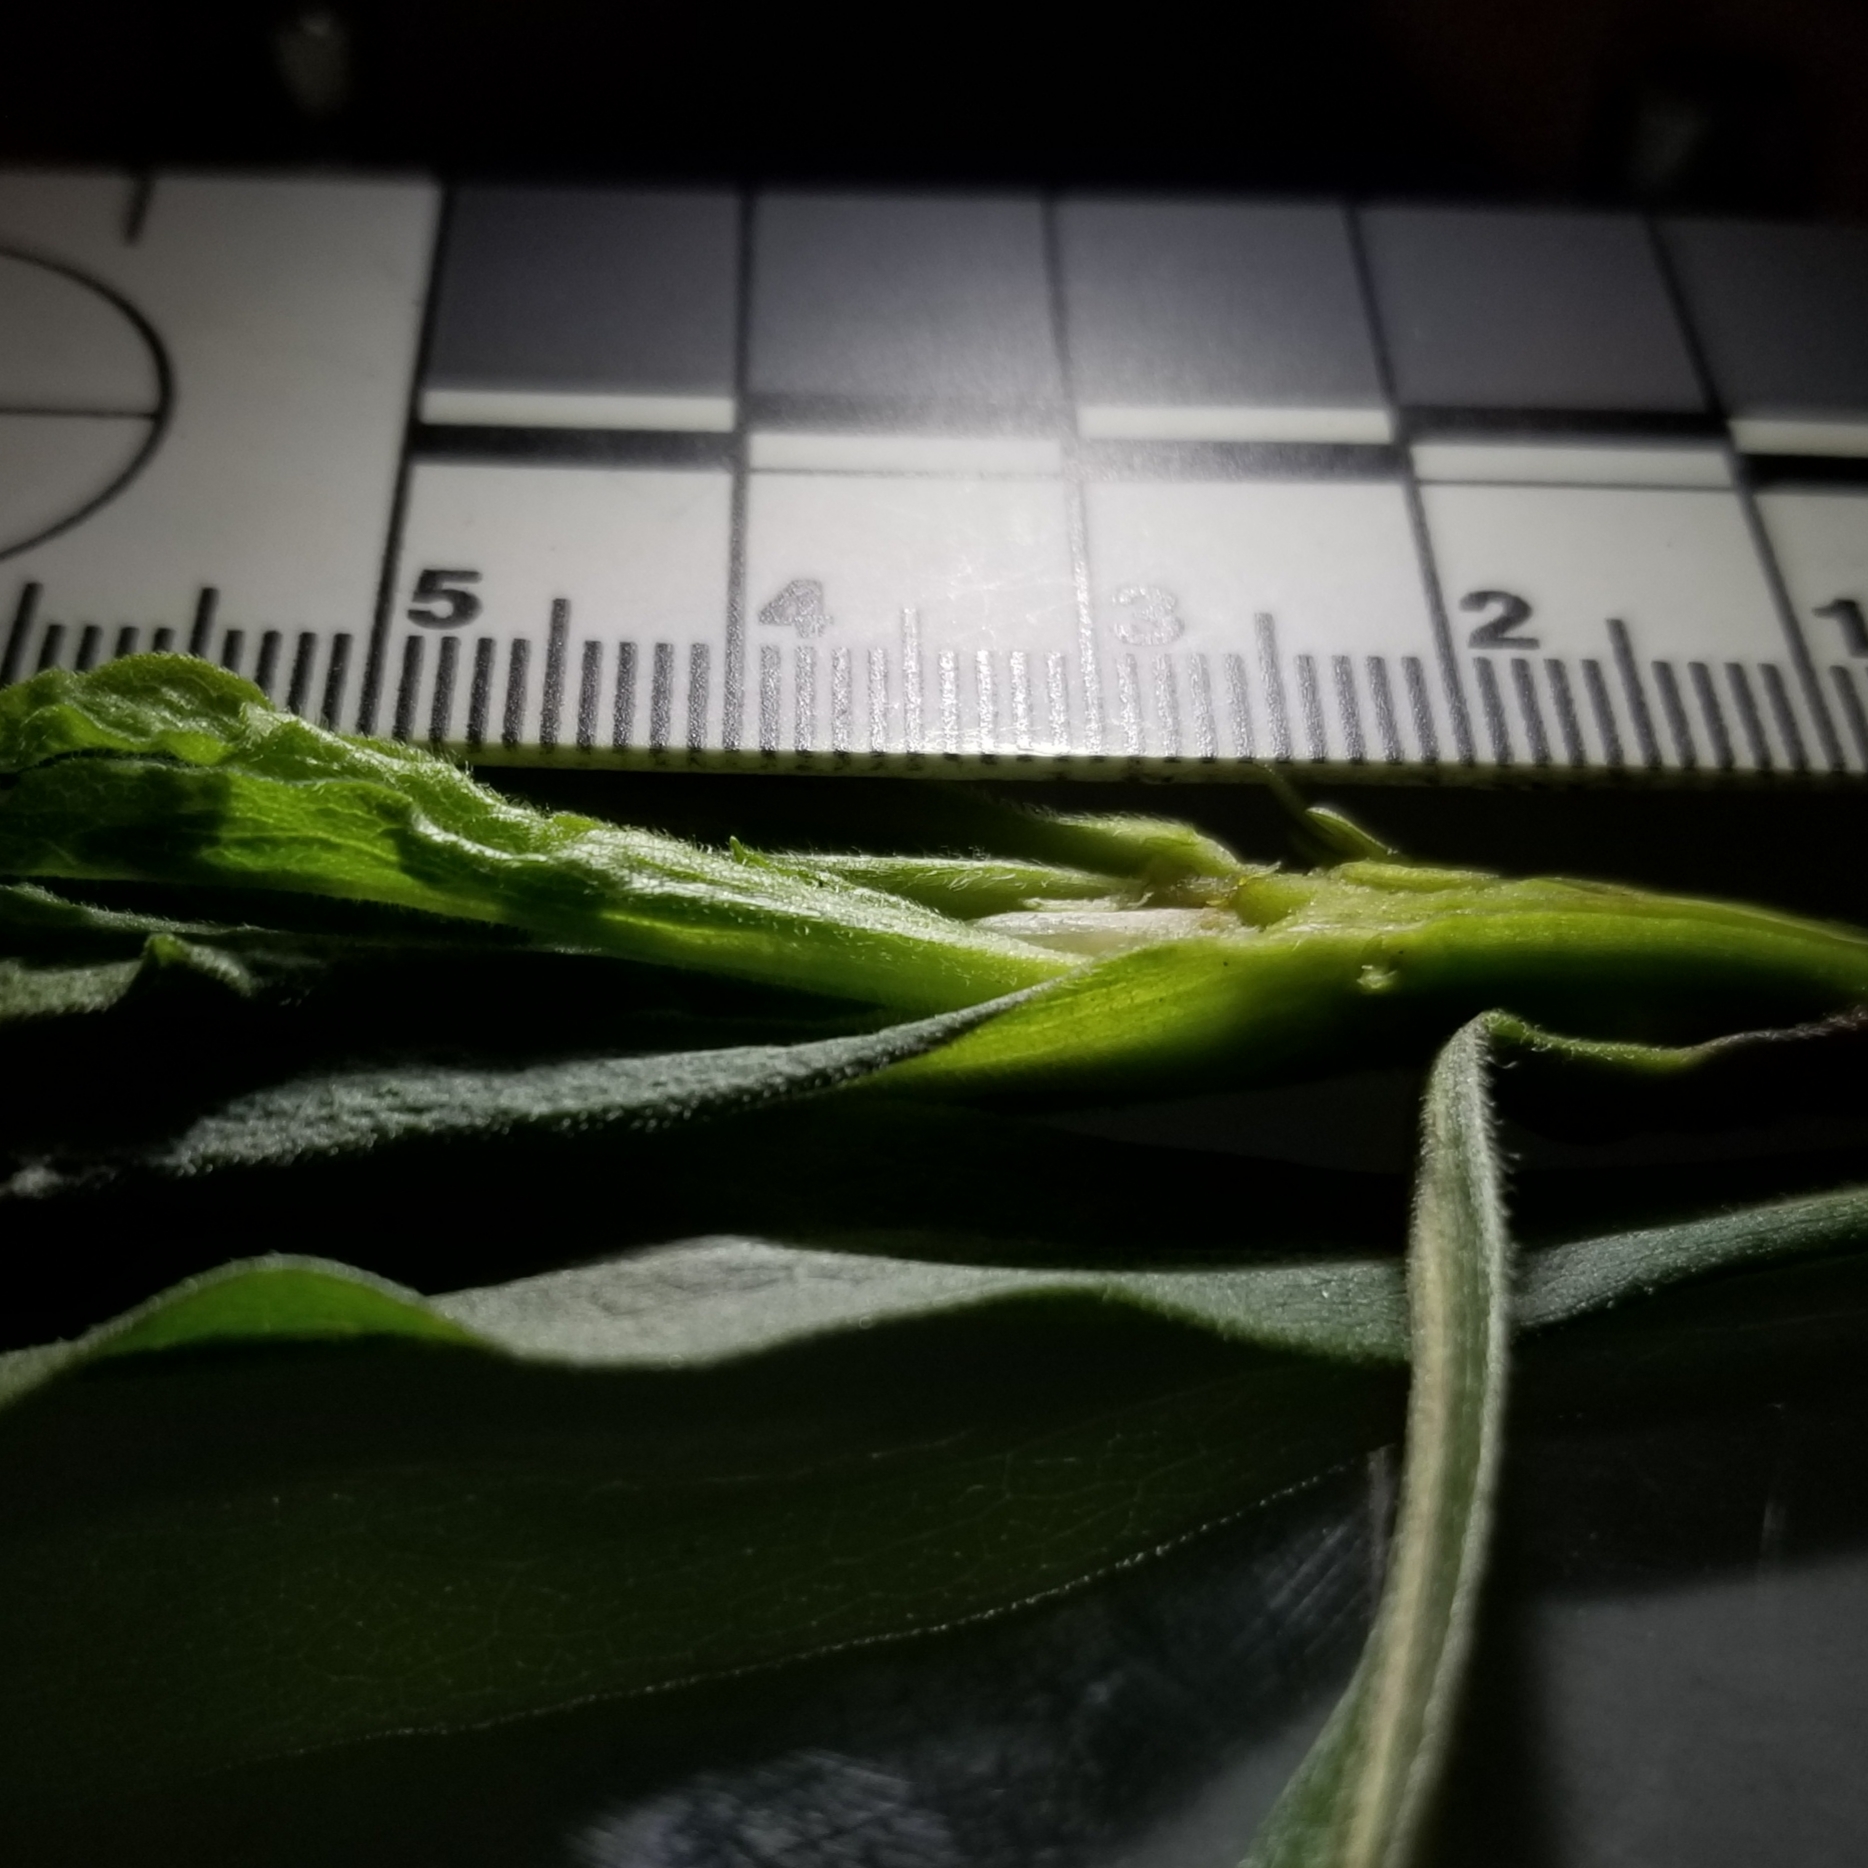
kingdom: Animalia
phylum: Arthropoda
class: Insecta
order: Diptera
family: Cecidomyiidae
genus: Rhopalomyia
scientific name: Rhopalomyia solidaginis
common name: Goldenrod bunch gall midge
